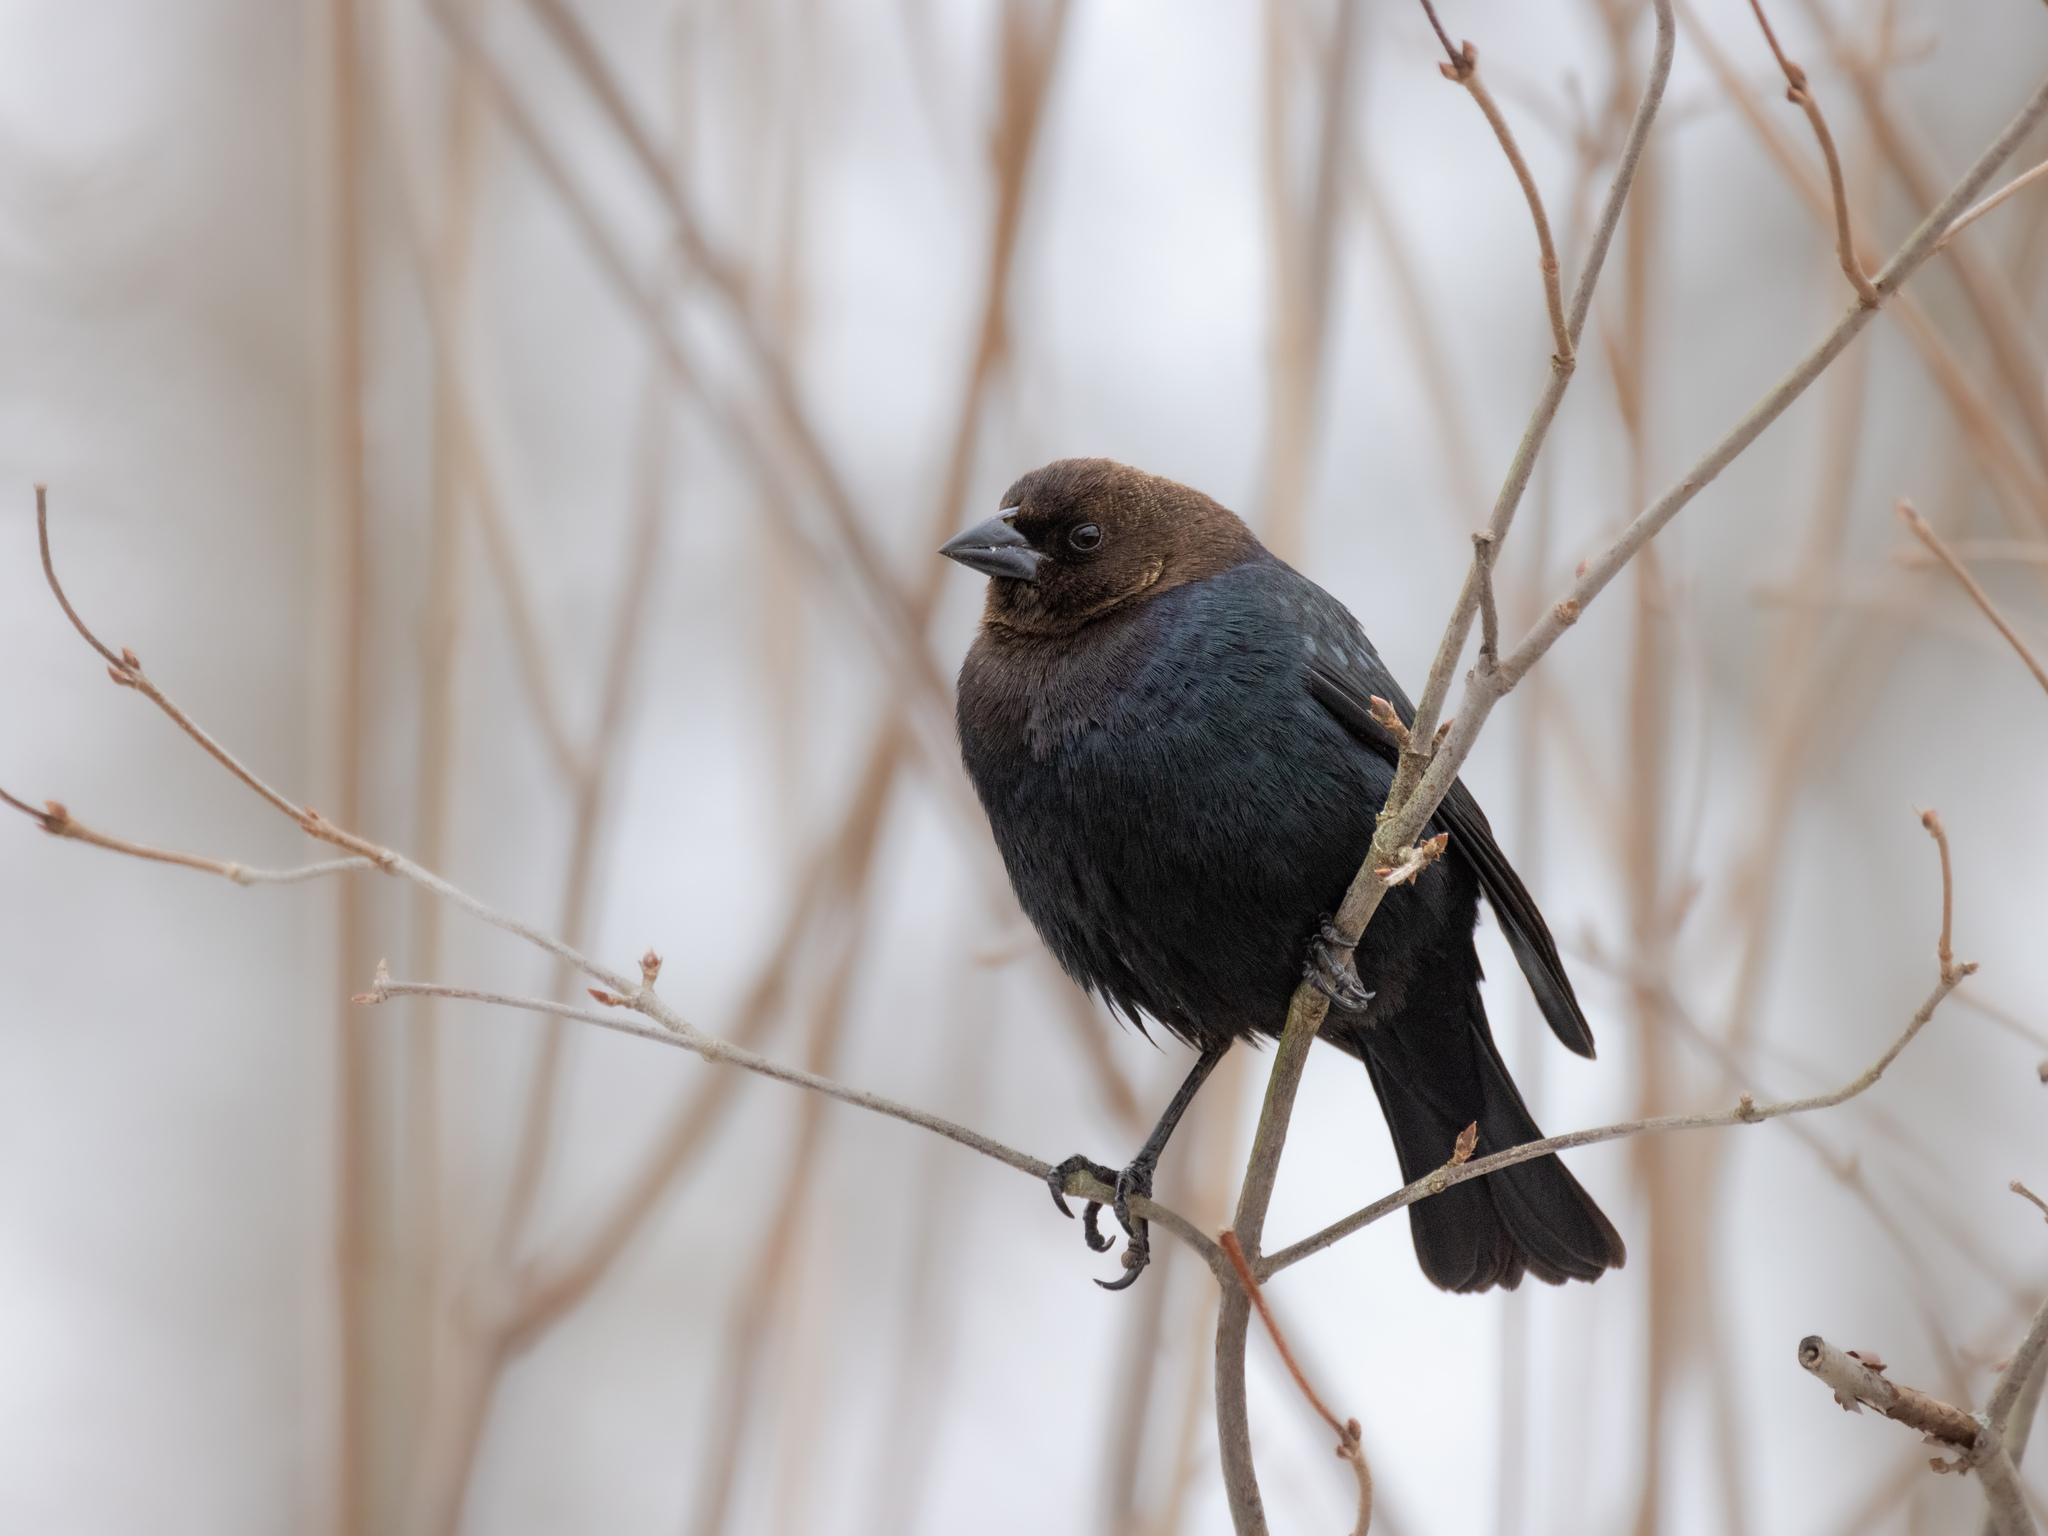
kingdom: Animalia
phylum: Chordata
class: Aves
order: Passeriformes
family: Icteridae
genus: Molothrus
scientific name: Molothrus ater
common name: Brown-headed cowbird
